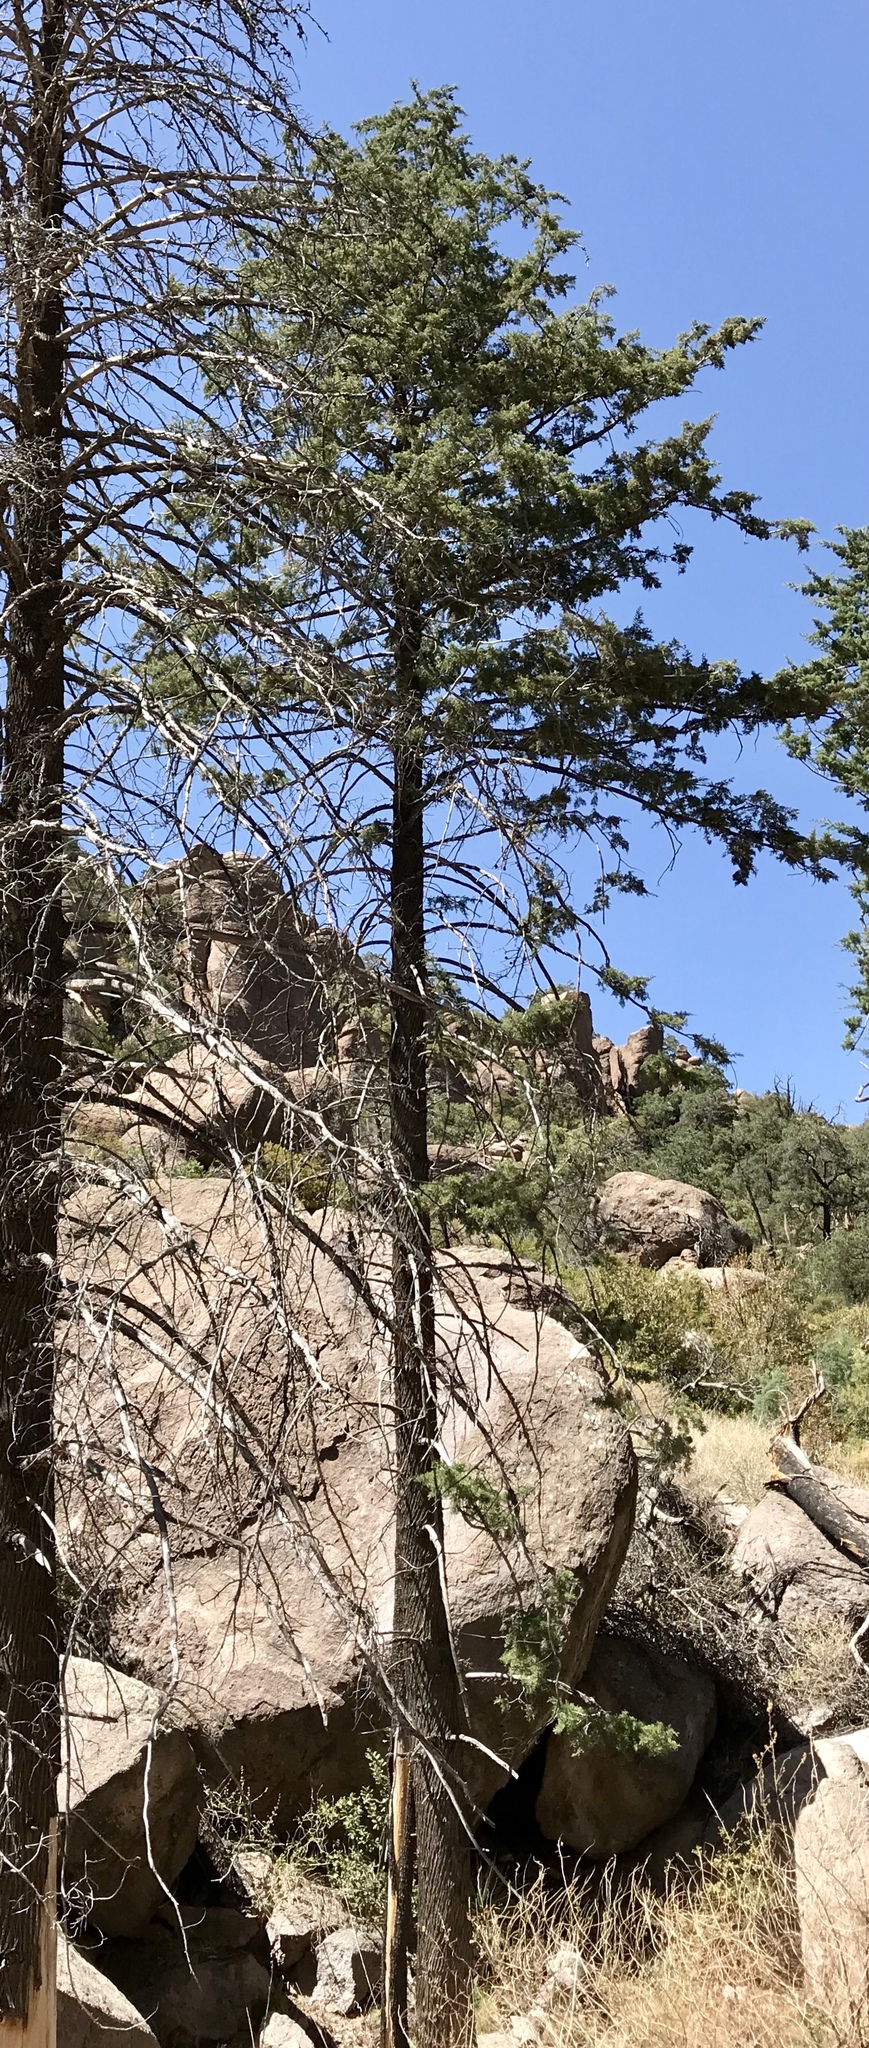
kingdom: Plantae
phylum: Tracheophyta
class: Pinopsida
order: Pinales
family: Cupressaceae
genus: Cupressus
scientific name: Cupressus arizonica
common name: Arizona cypress
